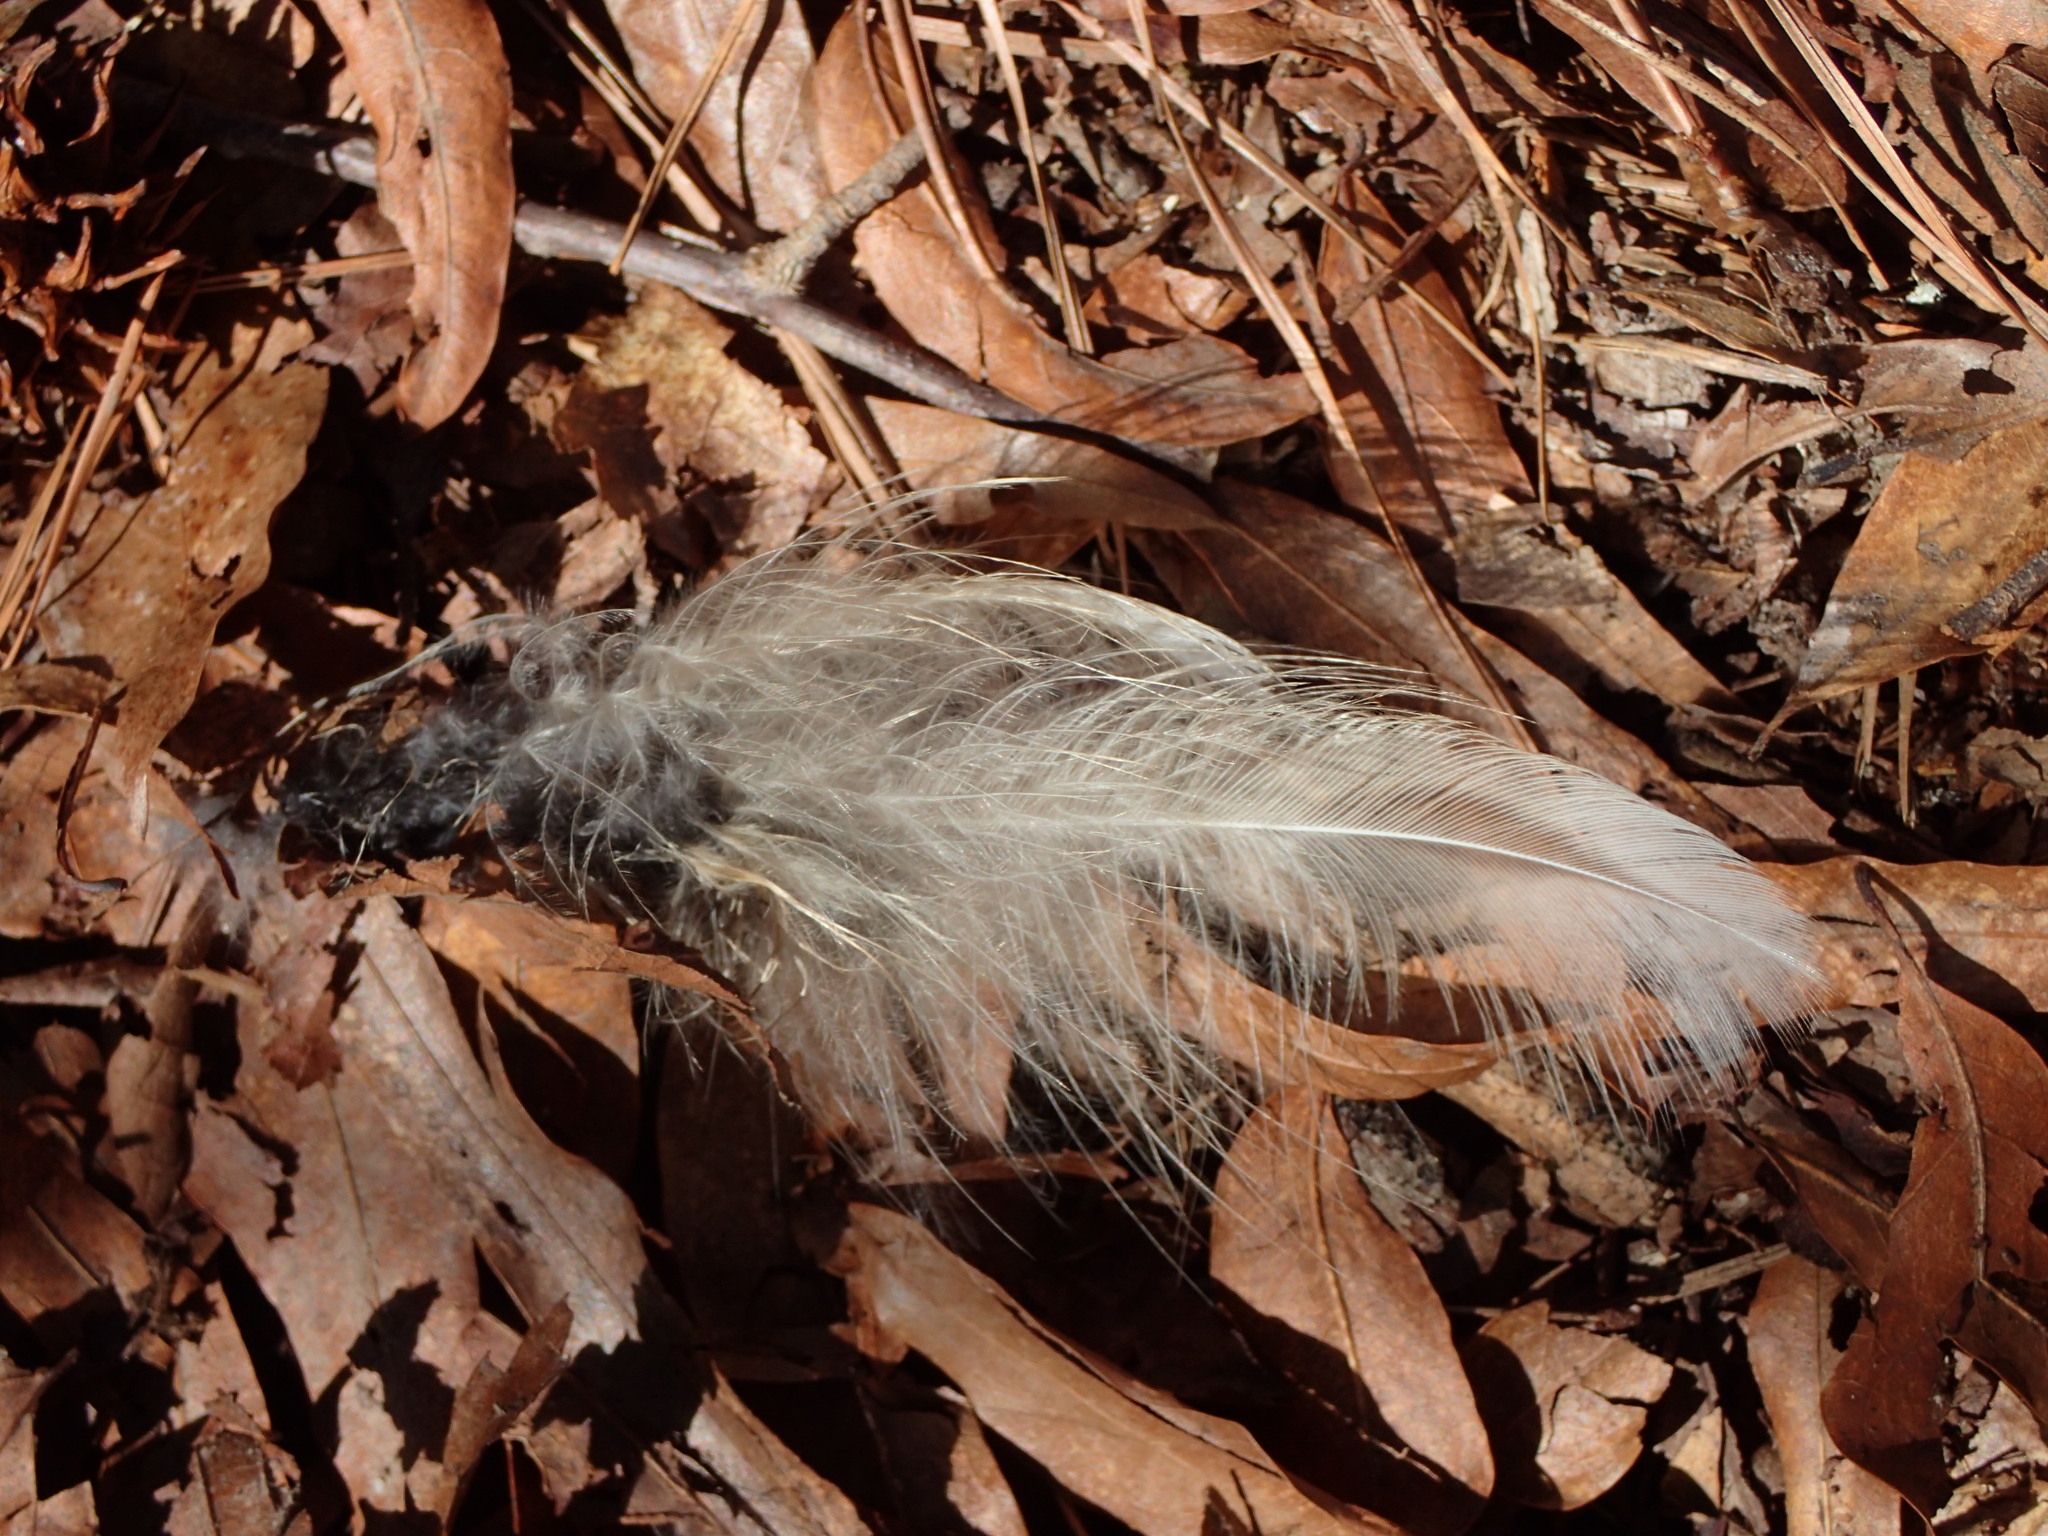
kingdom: Animalia
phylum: Chordata
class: Aves
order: Strigiformes
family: Strigidae
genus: Strix
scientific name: Strix varia
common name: Barred owl
